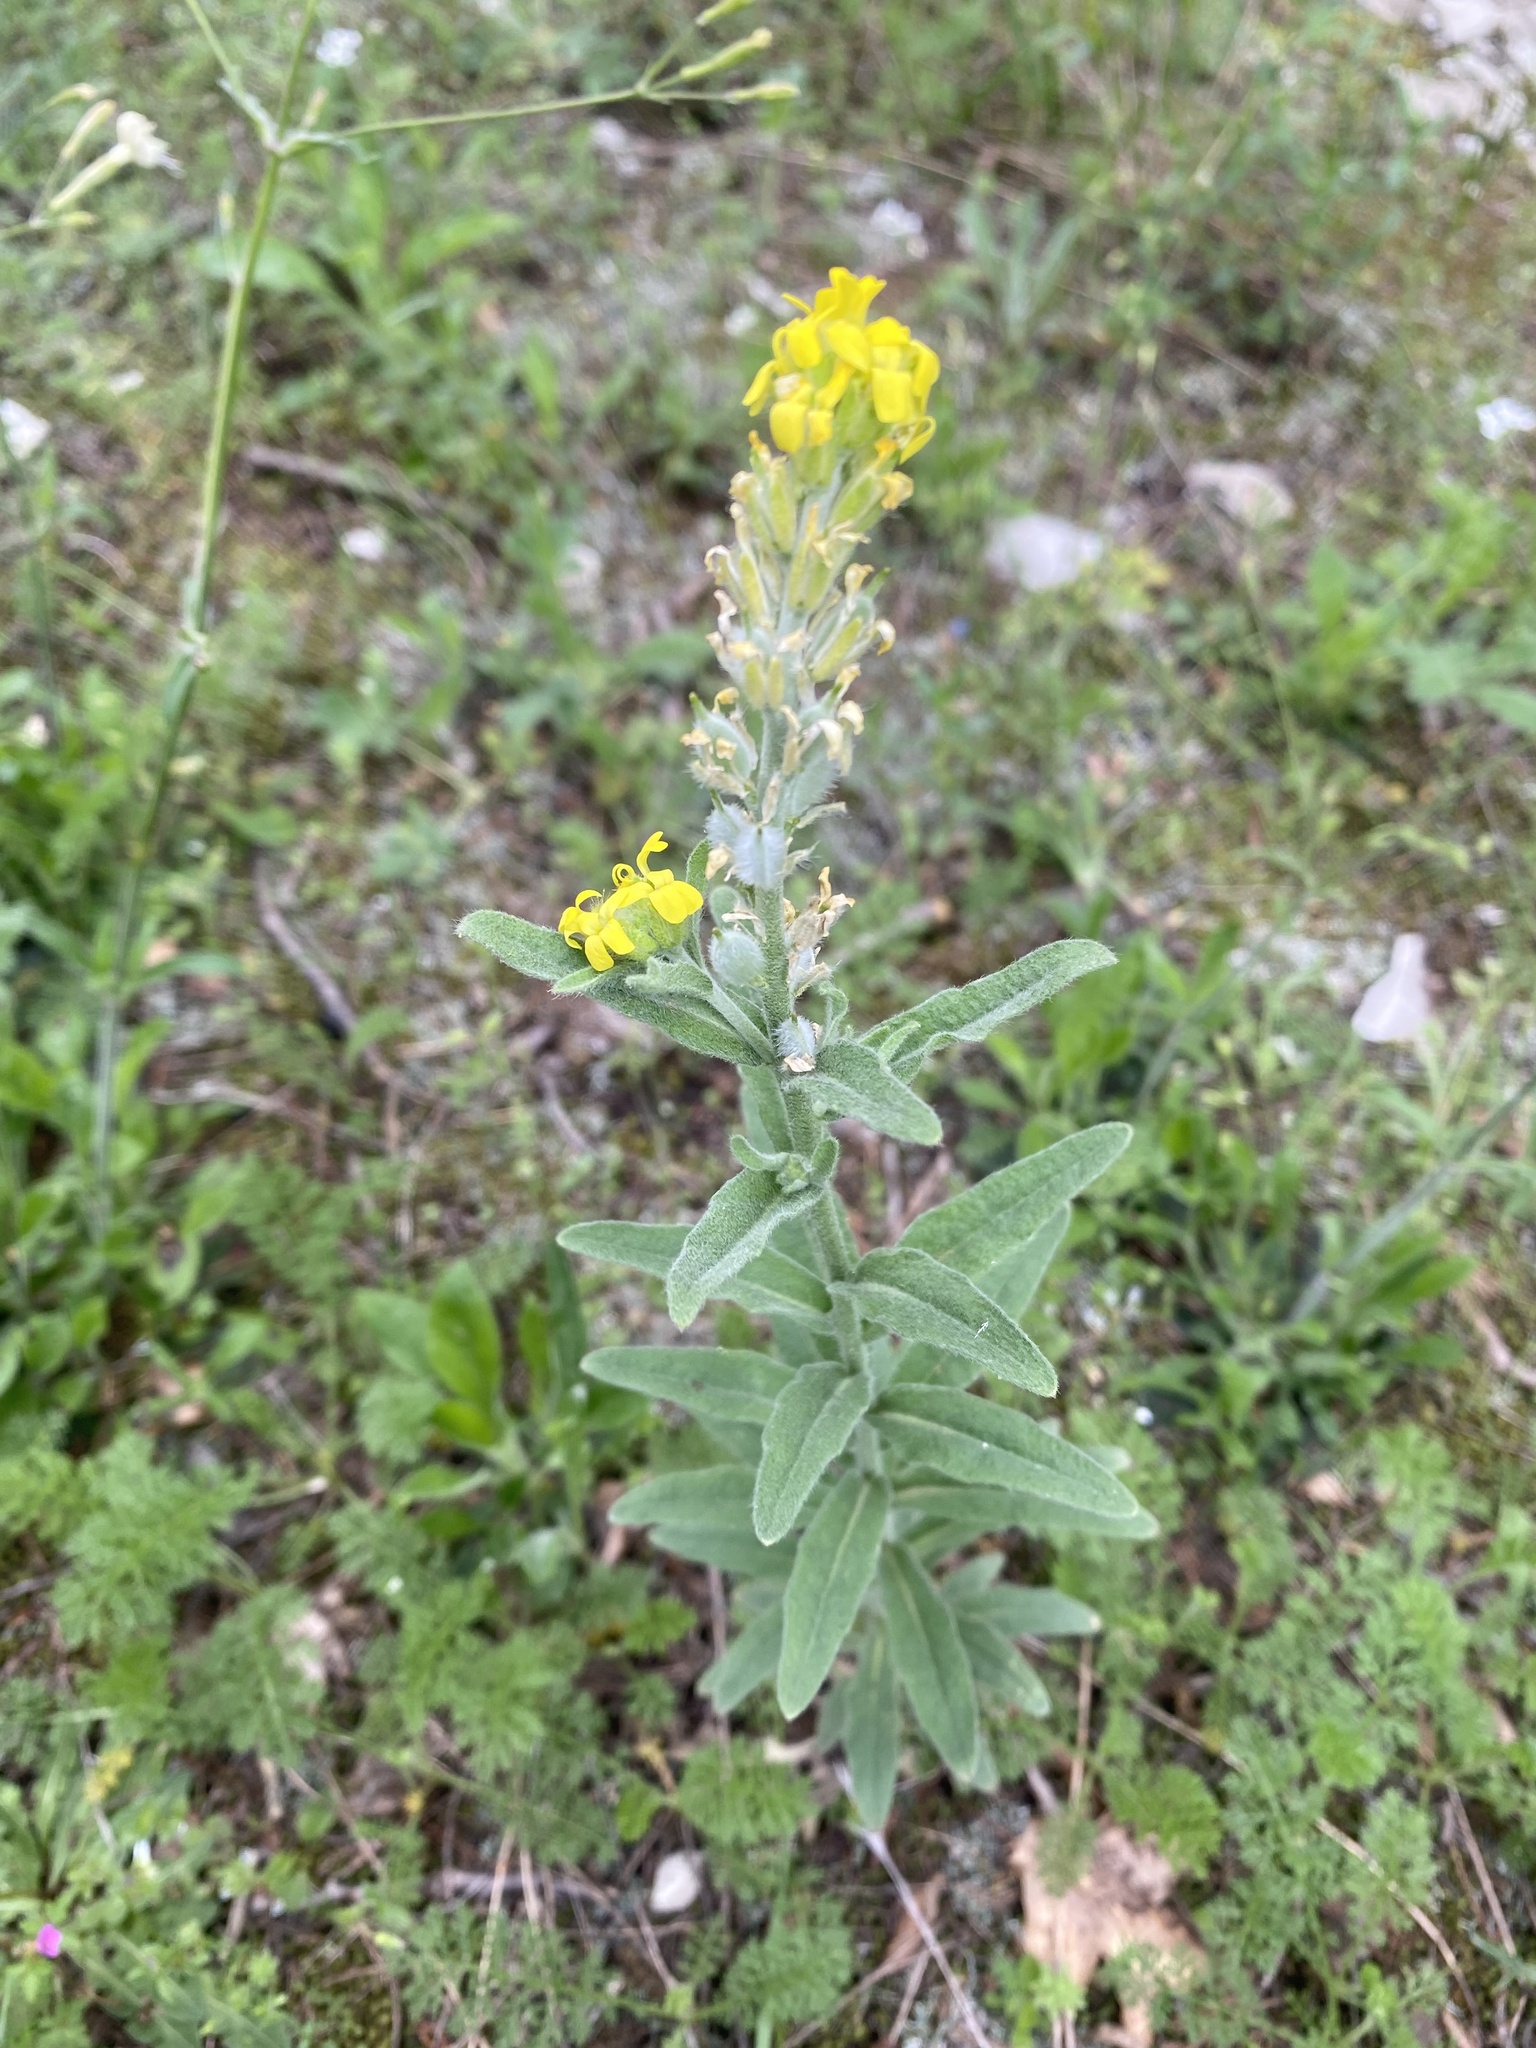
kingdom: Plantae
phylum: Tracheophyta
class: Magnoliopsida
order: Brassicales
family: Brassicaceae
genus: Fibigia
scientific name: Fibigia clypeata
